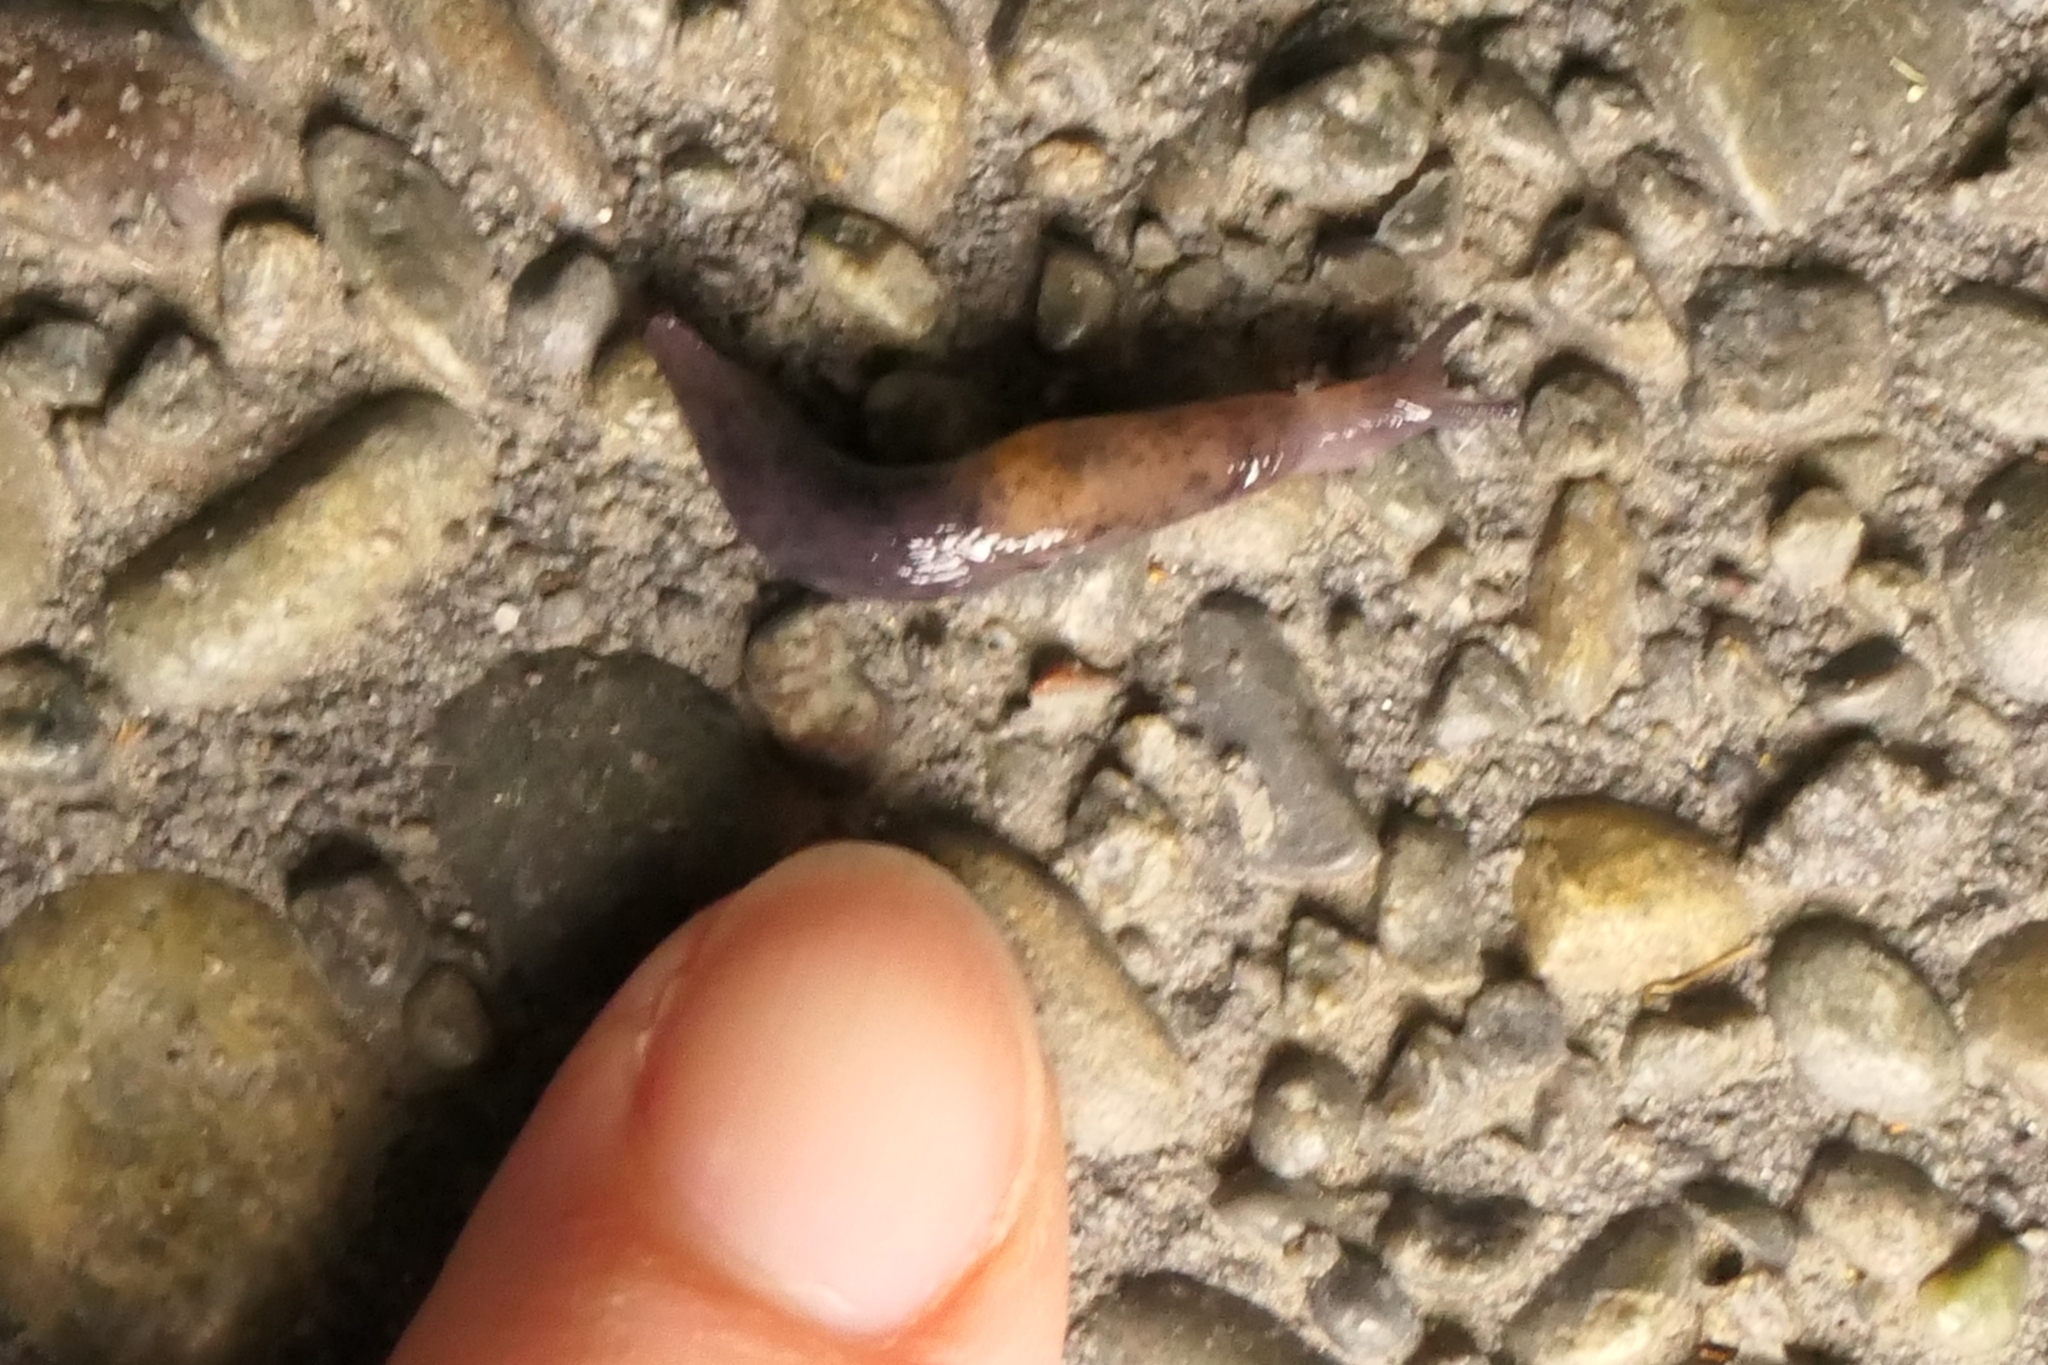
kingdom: Animalia
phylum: Mollusca
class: Gastropoda
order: Stylommatophora
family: Agriolimacidae
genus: Deroceras
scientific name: Deroceras invadens
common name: Caruana's slug
